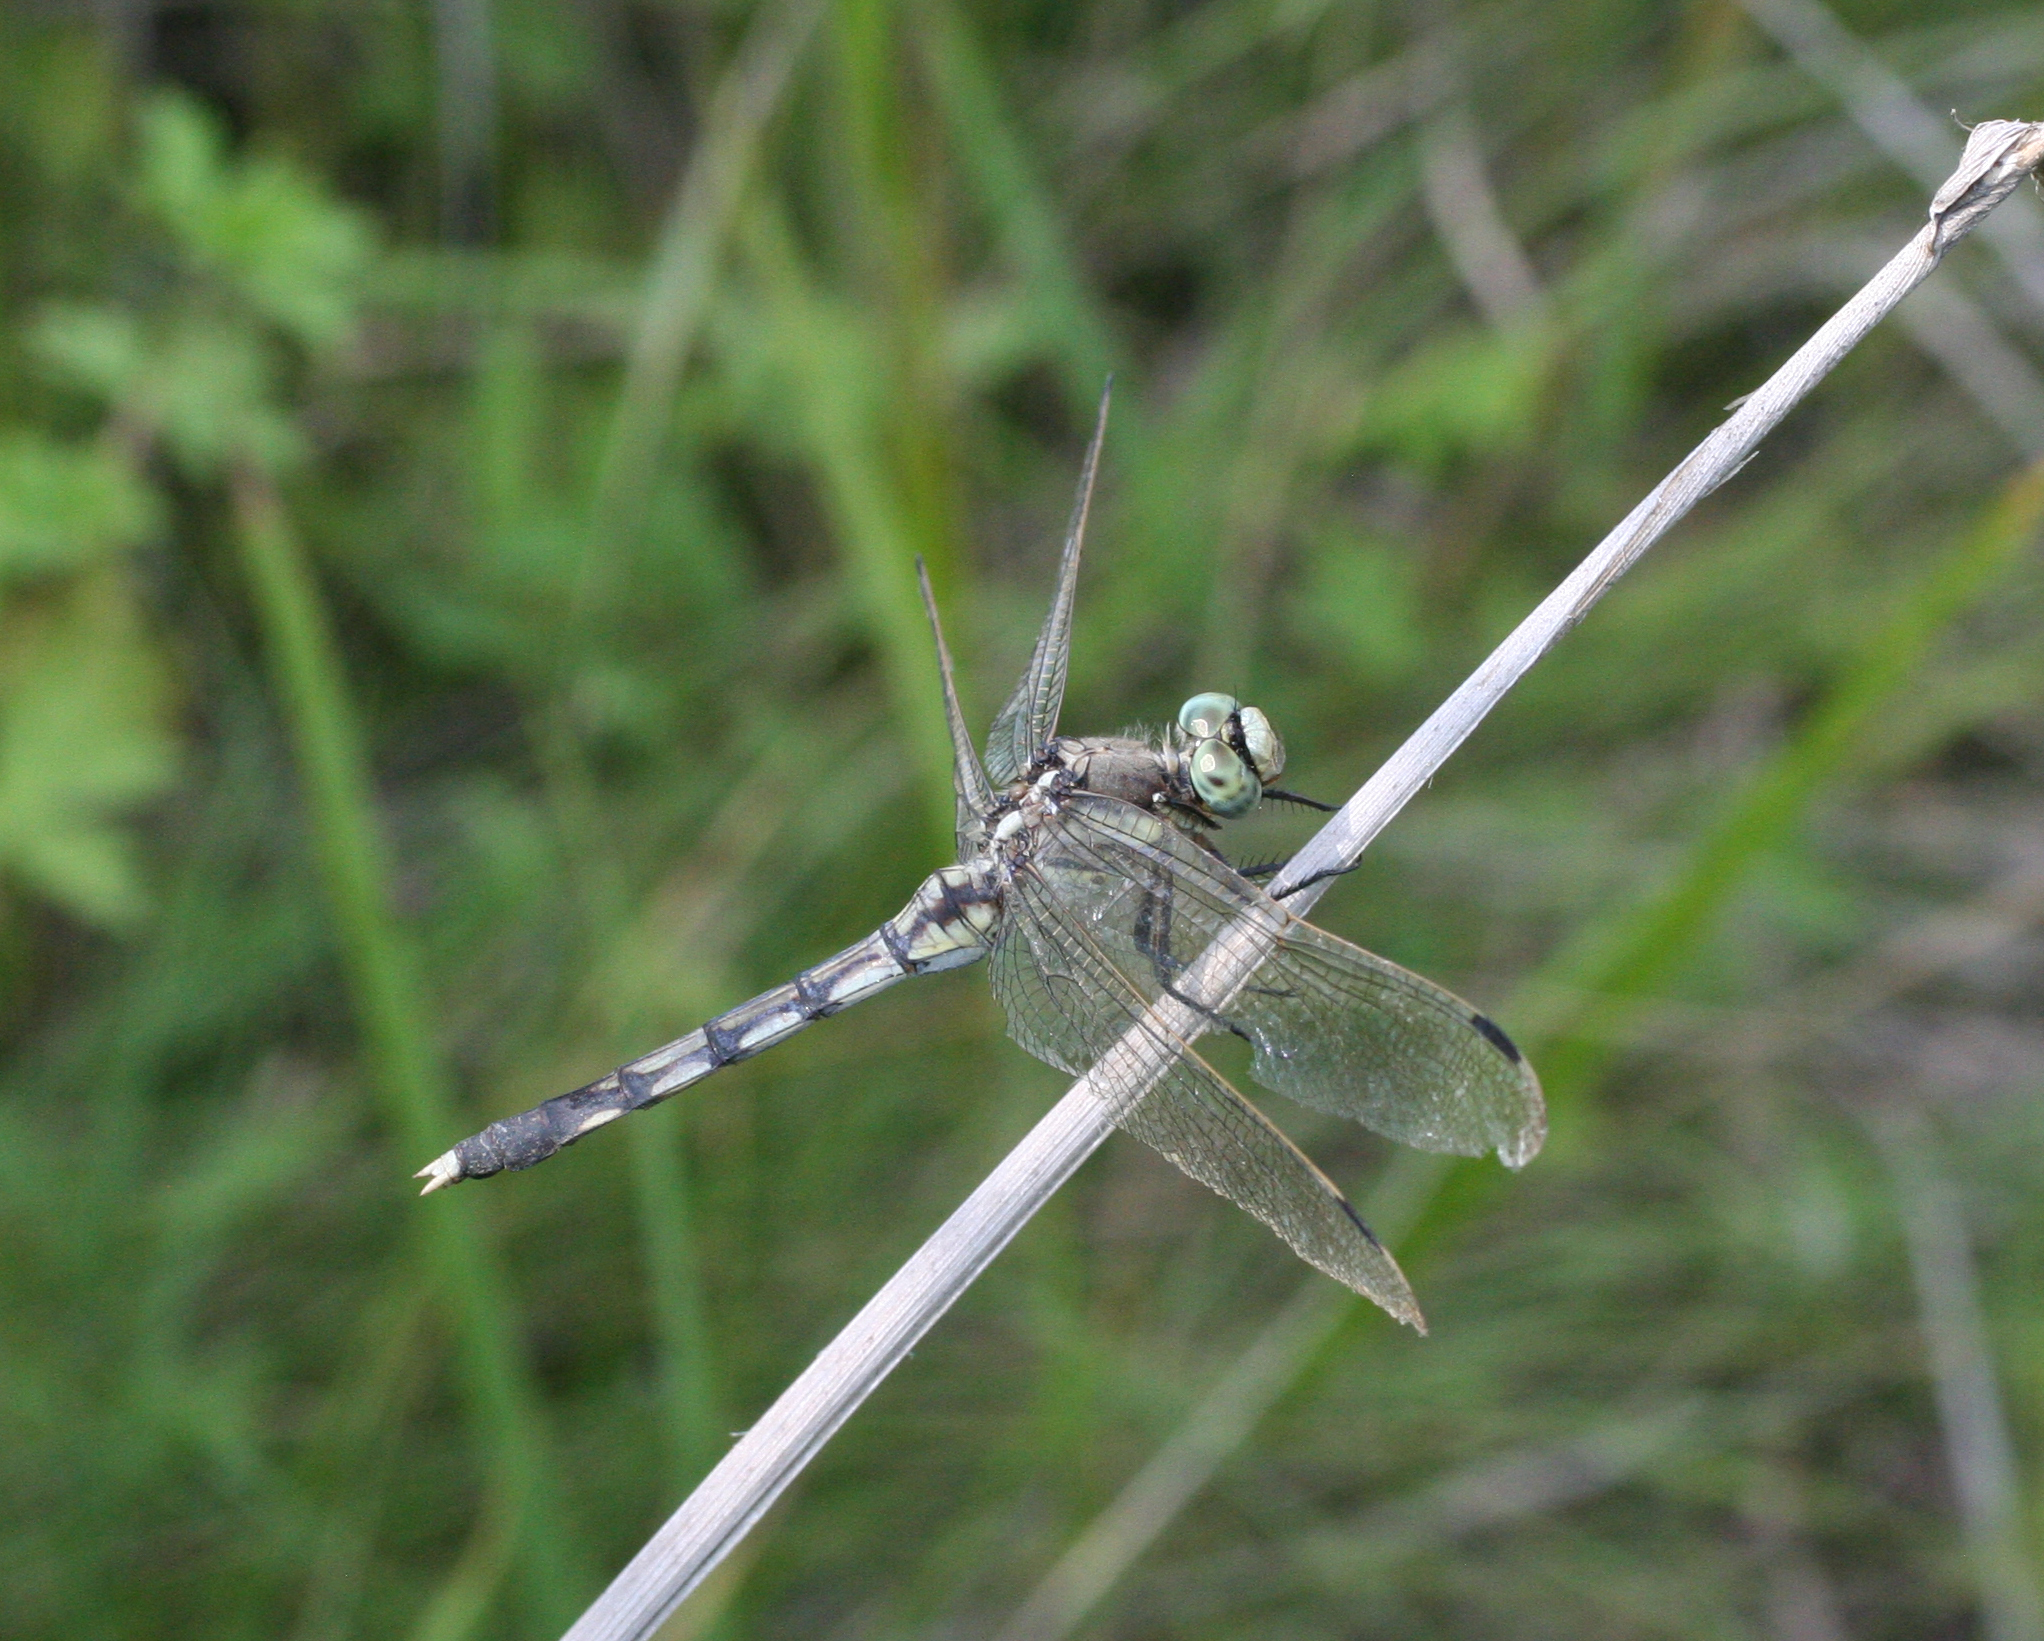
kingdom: Animalia
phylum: Arthropoda
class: Insecta
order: Odonata
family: Libellulidae
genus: Orthetrum
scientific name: Orthetrum albistylum
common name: White-tailed skimmer
